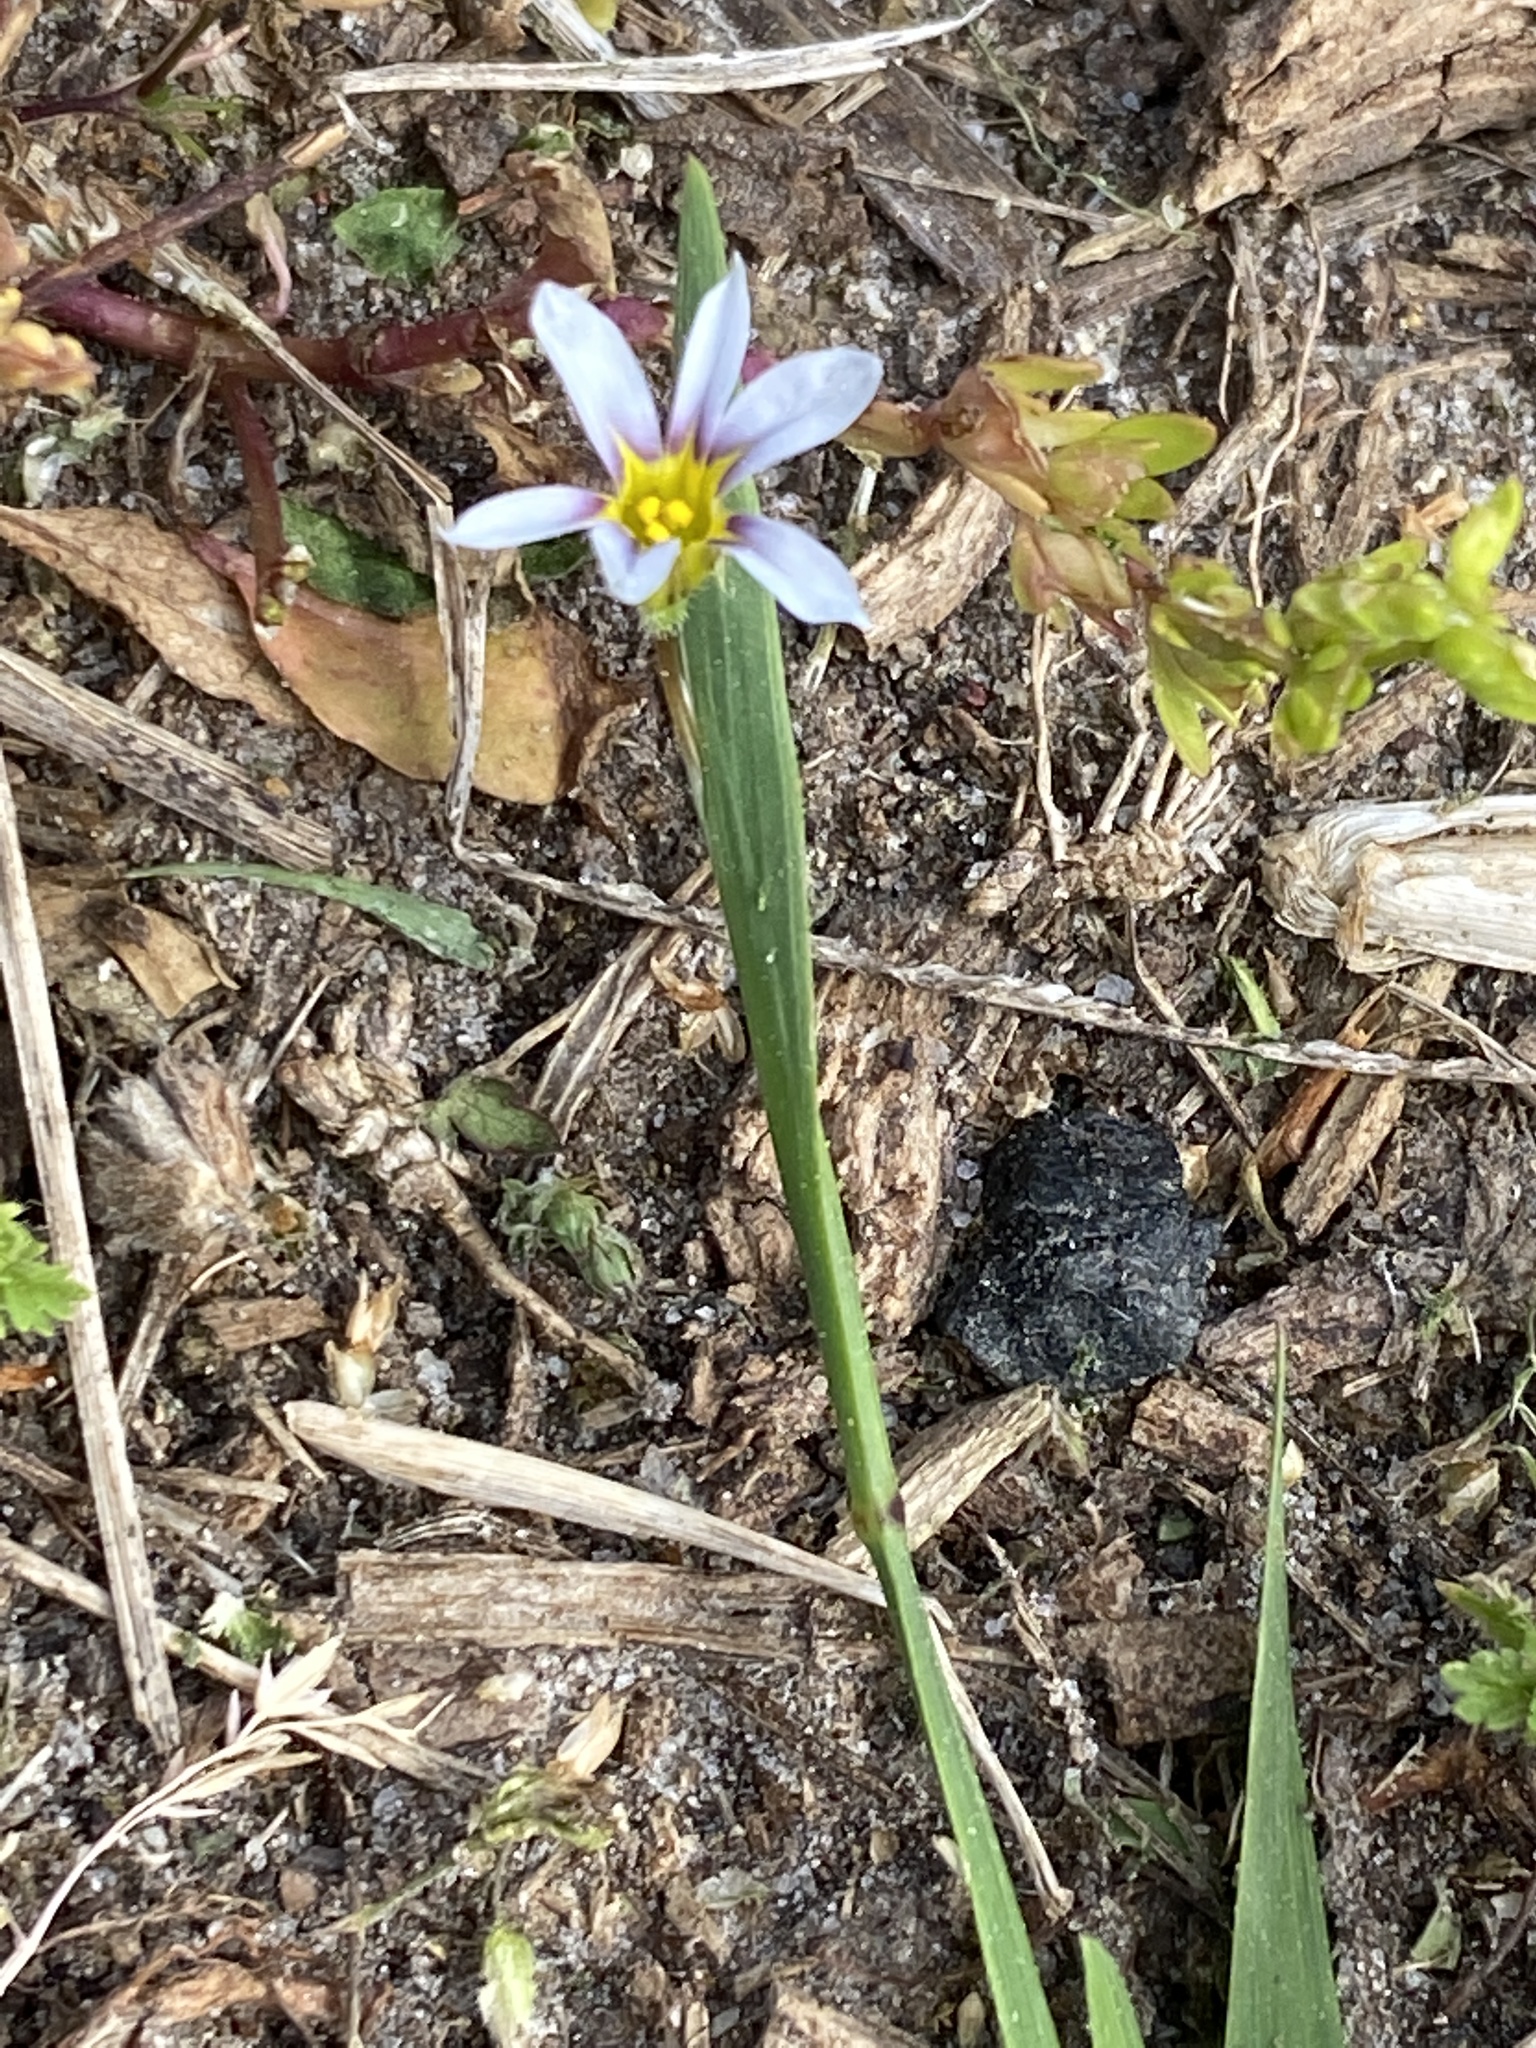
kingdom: Plantae
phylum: Tracheophyta
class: Liliopsida
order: Asparagales
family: Iridaceae
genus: Sisyrinchium
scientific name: Sisyrinchium micranthum
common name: Bermuda pigroot
